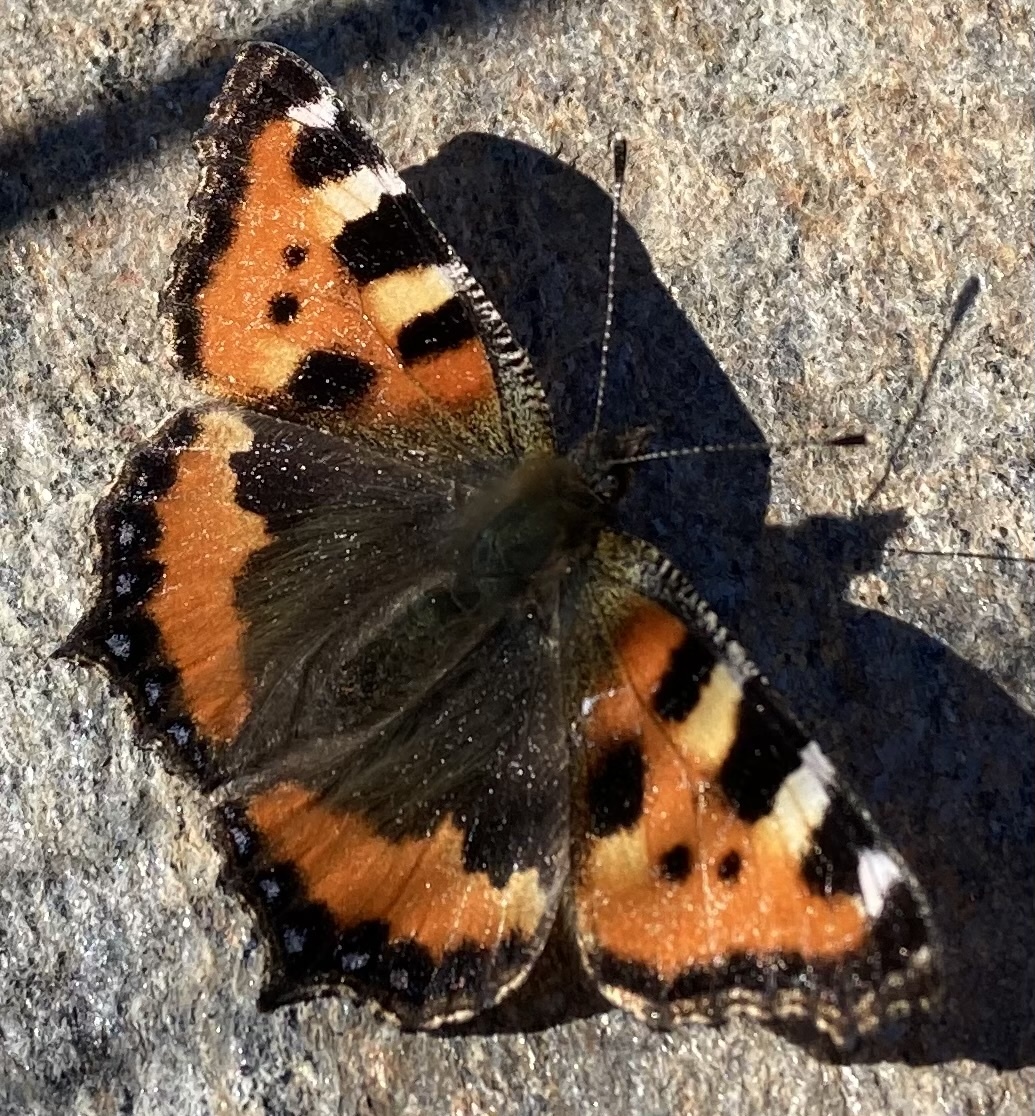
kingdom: Animalia
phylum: Arthropoda
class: Insecta
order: Lepidoptera
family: Nymphalidae
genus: Aglais
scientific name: Aglais urticae
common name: Small tortoiseshell
